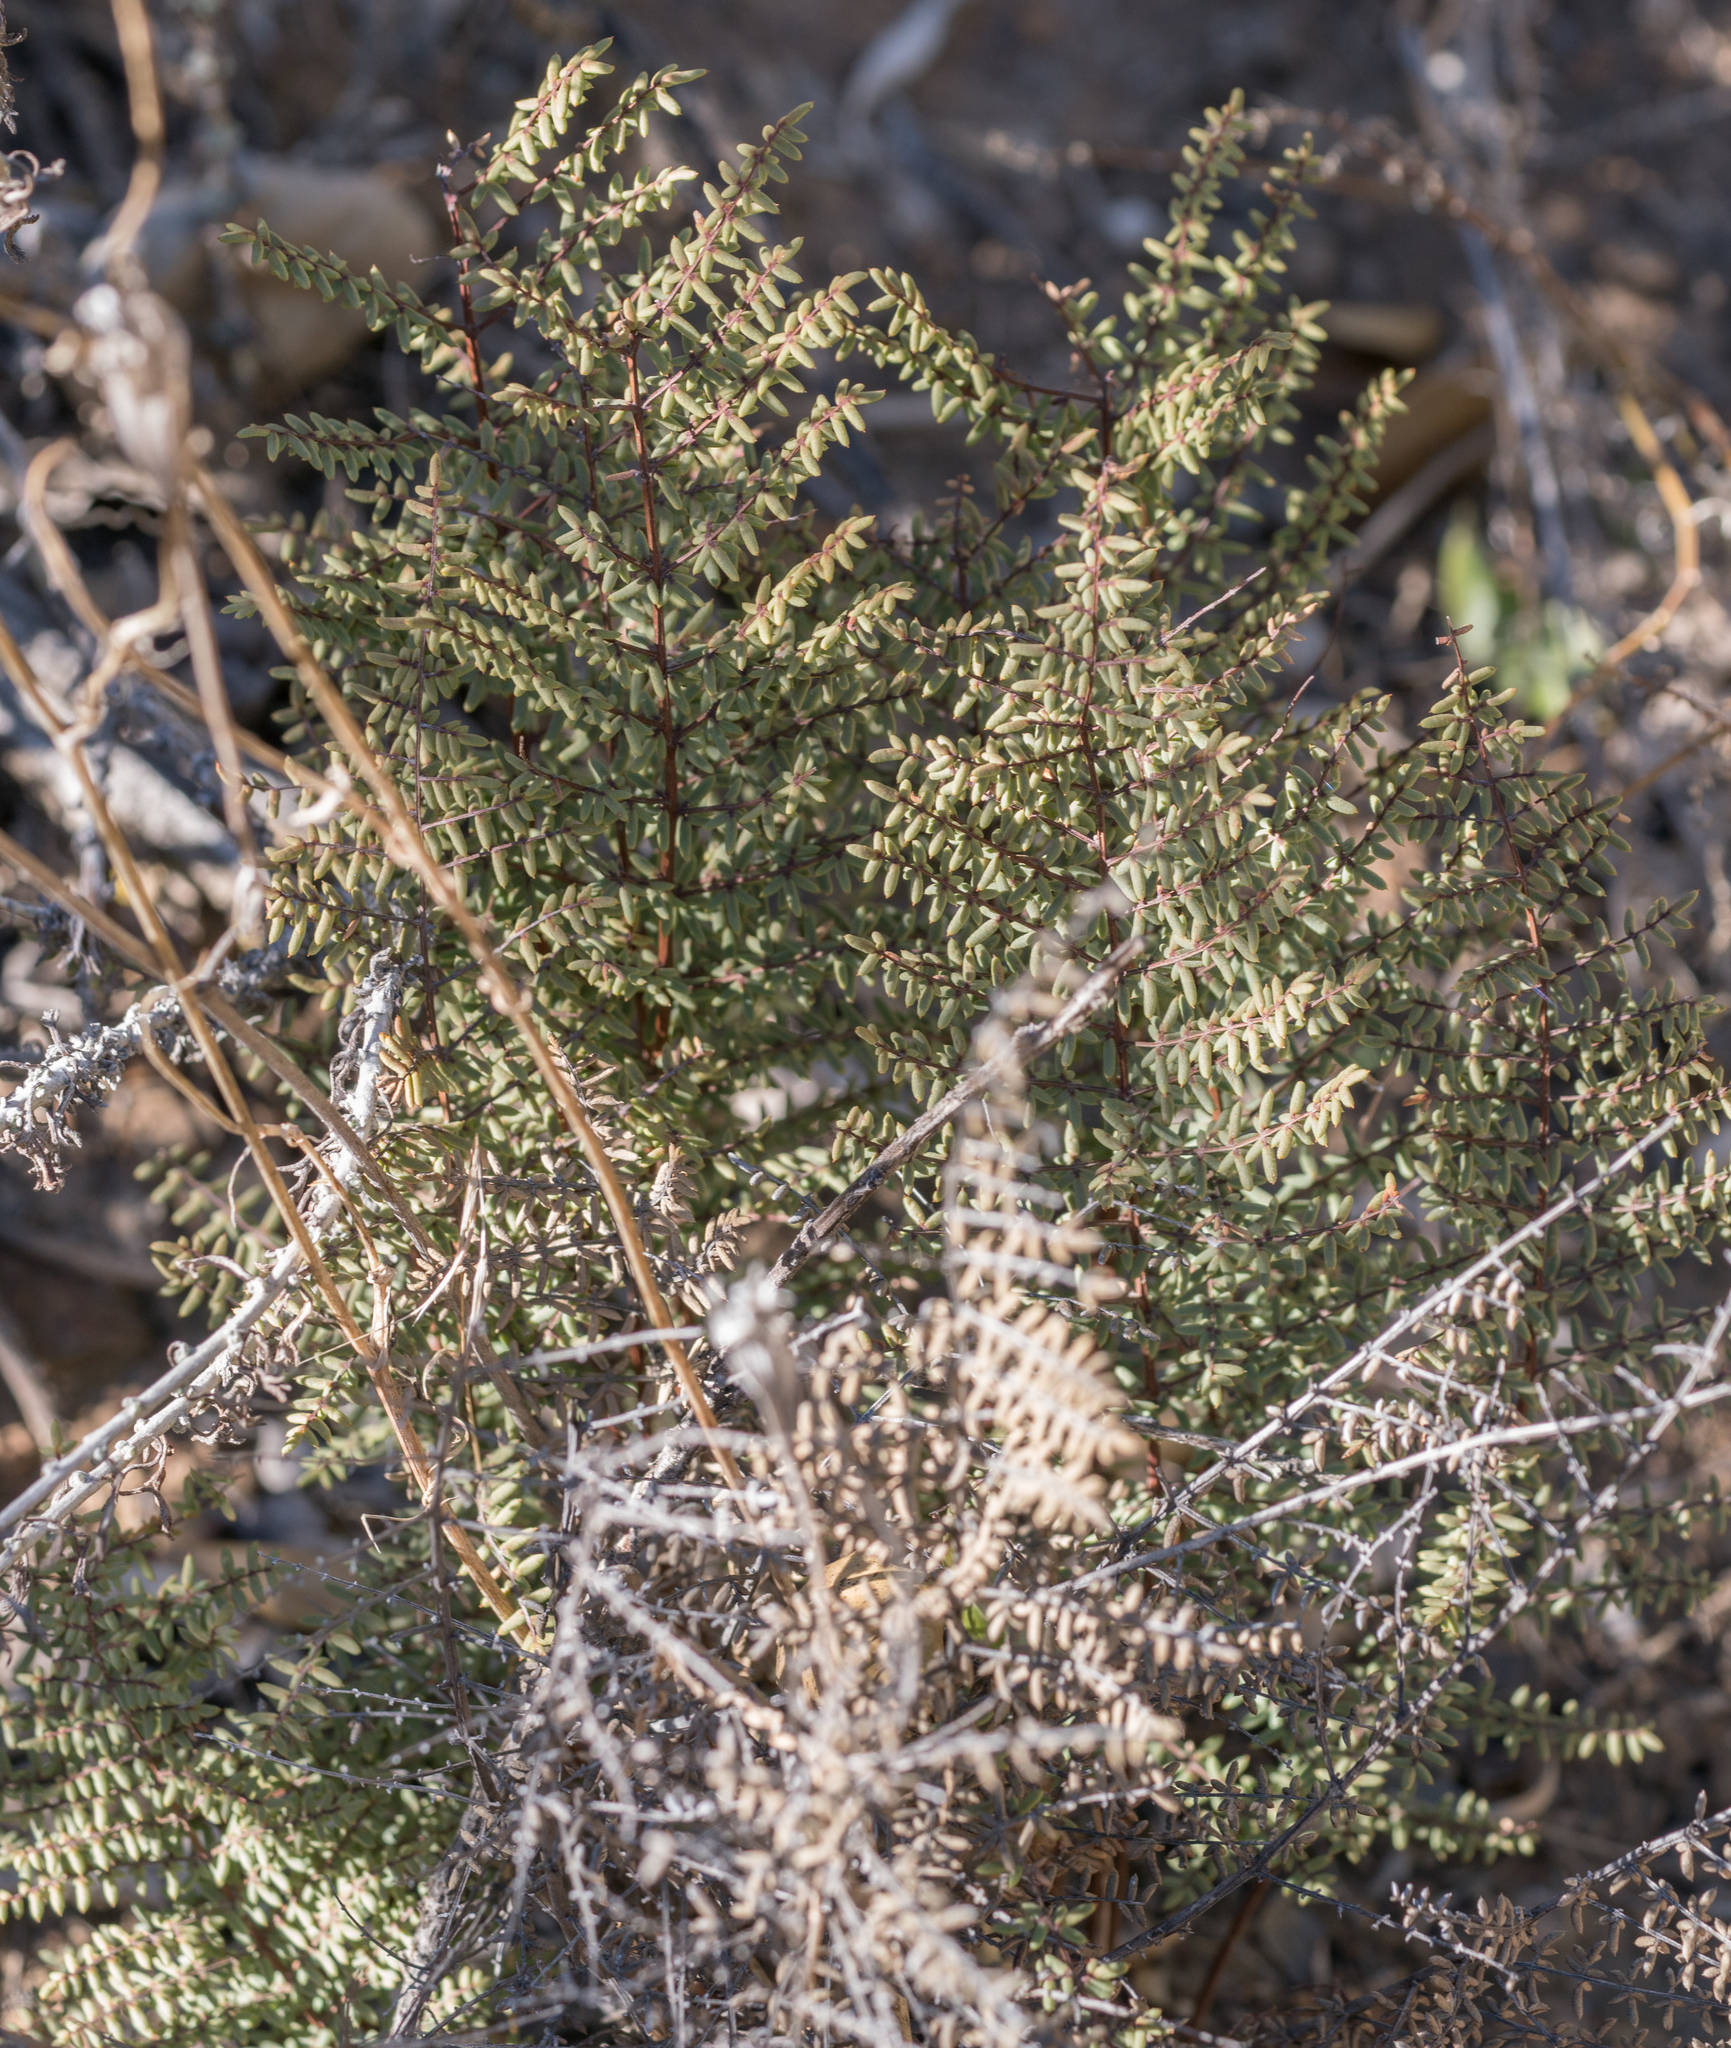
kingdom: Plantae
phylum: Tracheophyta
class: Polypodiopsida
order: Polypodiales
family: Pteridaceae
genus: Pellaea
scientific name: Pellaea mucronata
